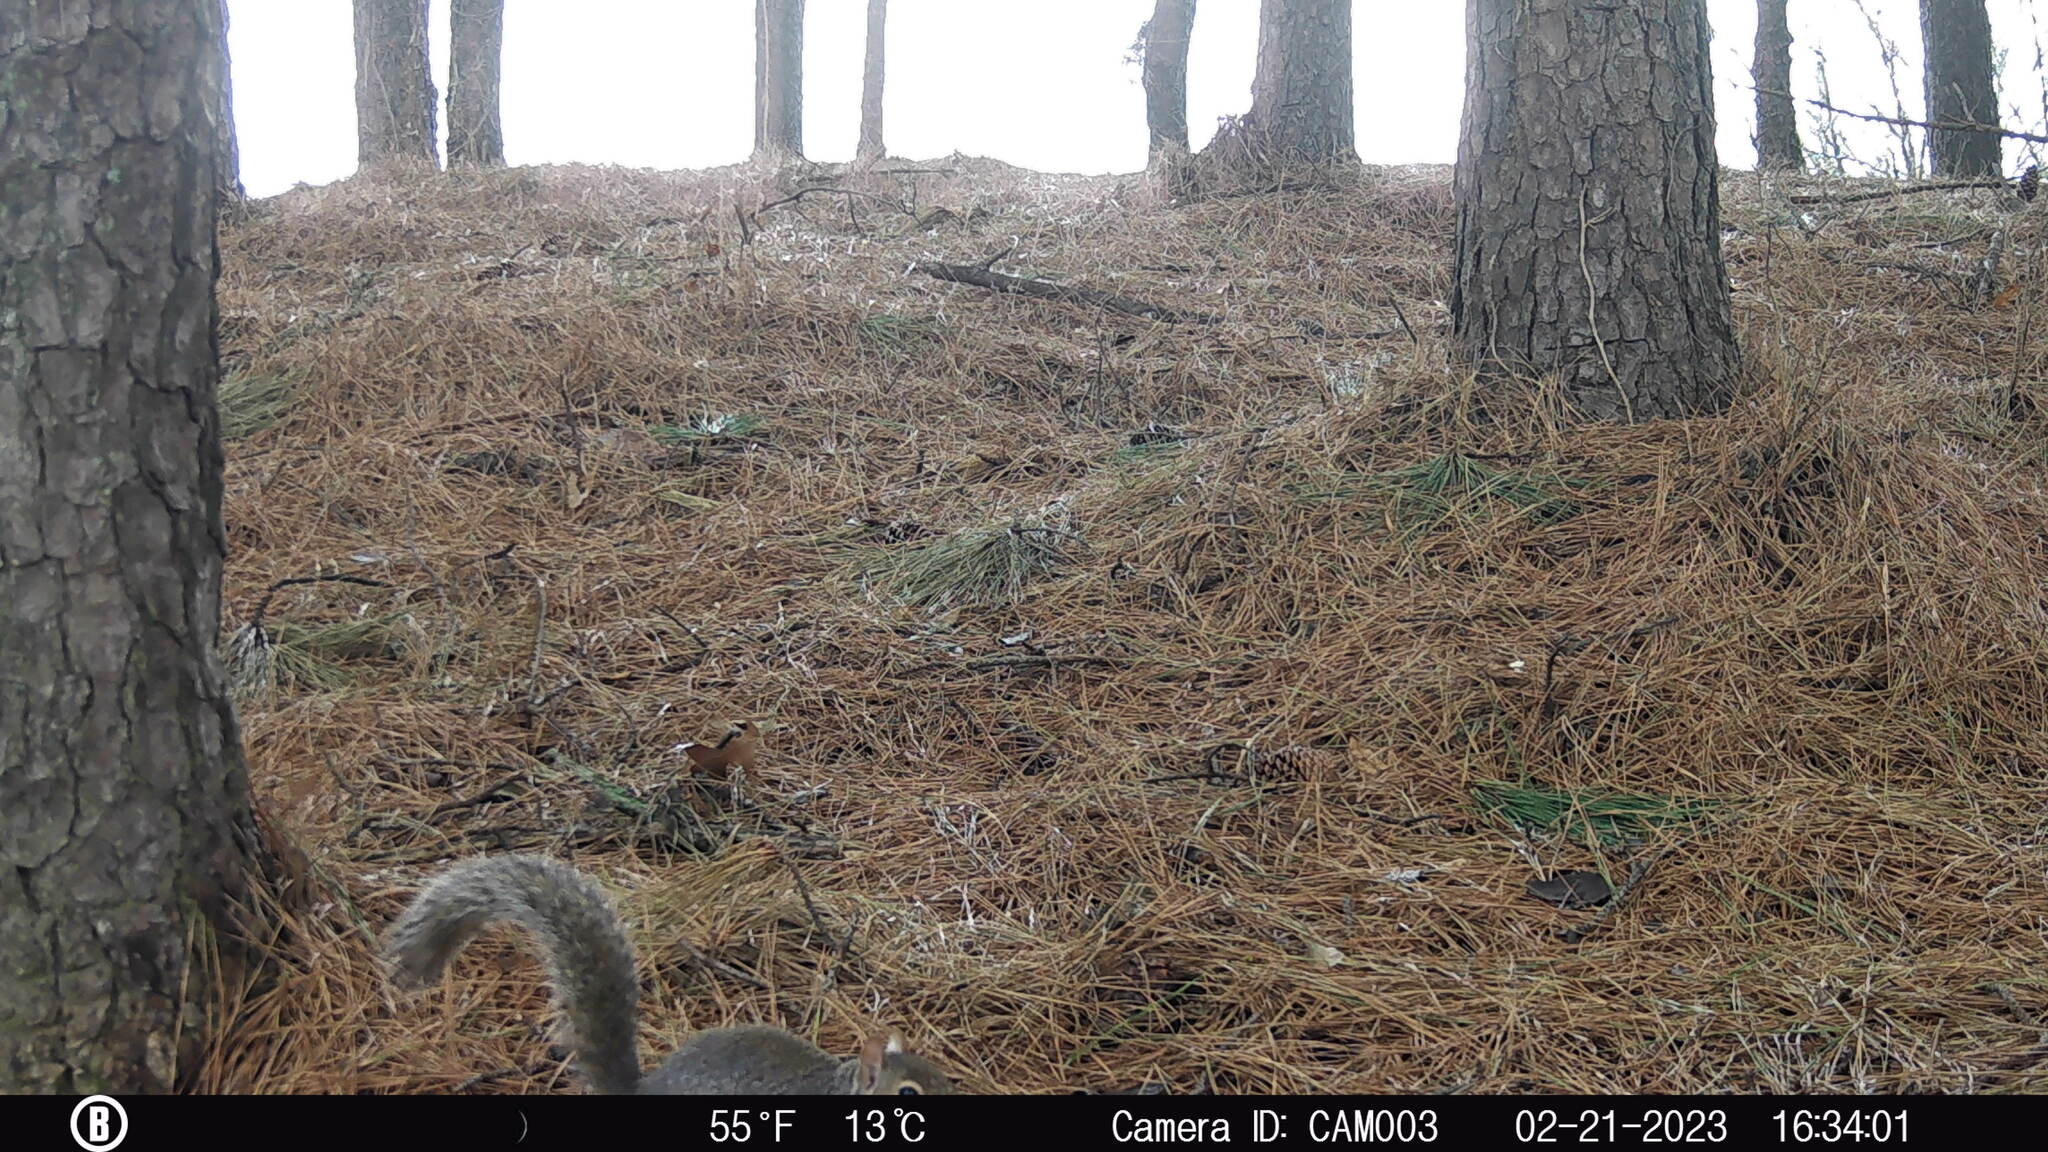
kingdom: Animalia
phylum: Chordata
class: Mammalia
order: Rodentia
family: Sciuridae
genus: Sciurus
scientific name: Sciurus carolinensis
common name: Eastern gray squirrel
